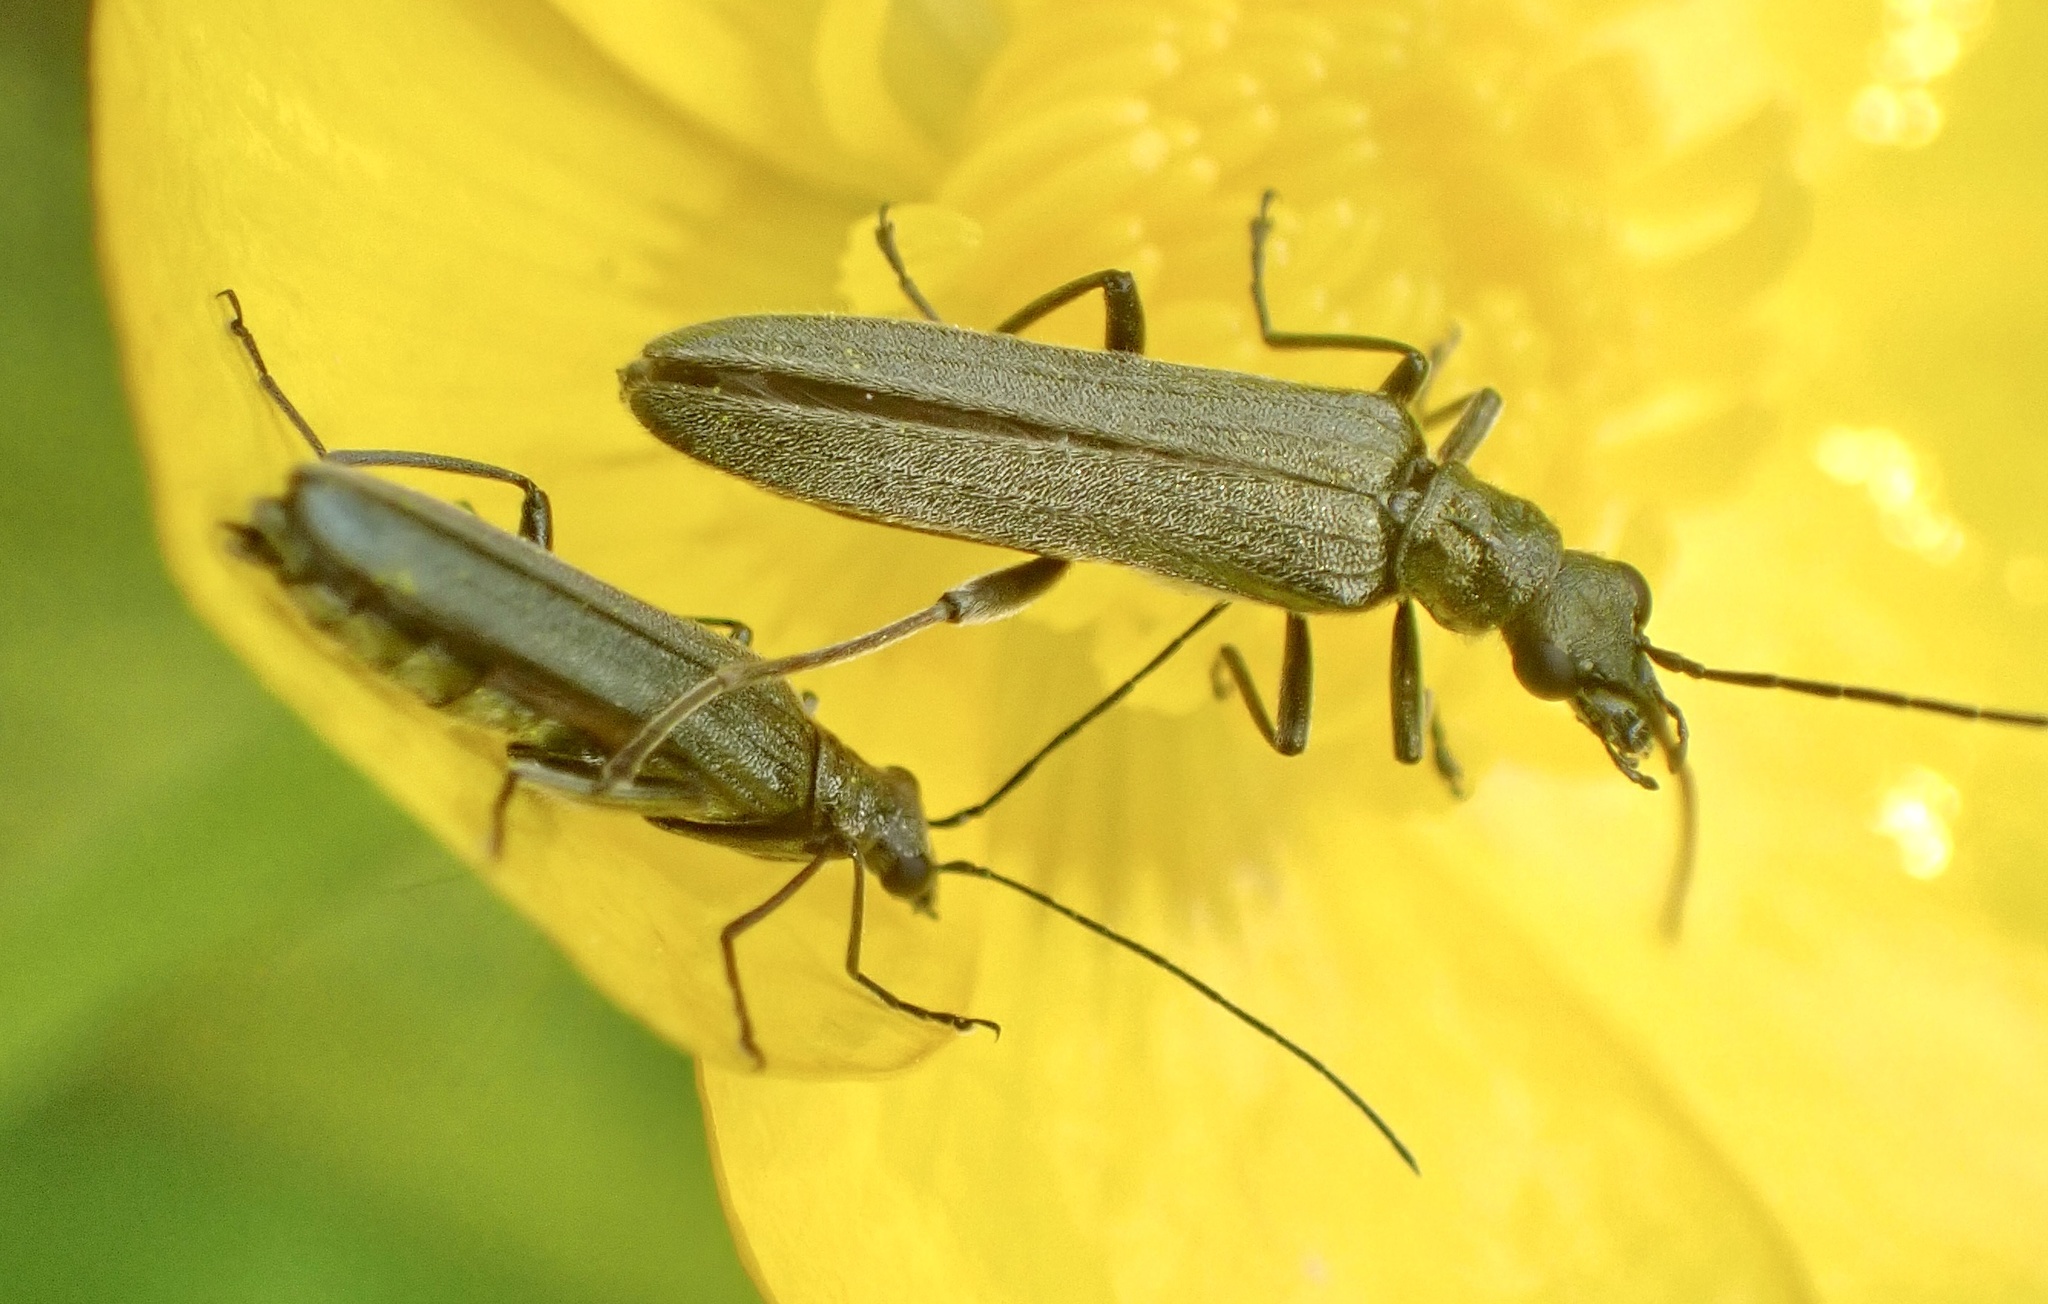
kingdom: Animalia
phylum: Arthropoda
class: Insecta
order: Coleoptera
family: Oedemeridae
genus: Oedemera
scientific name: Oedemera lurida
